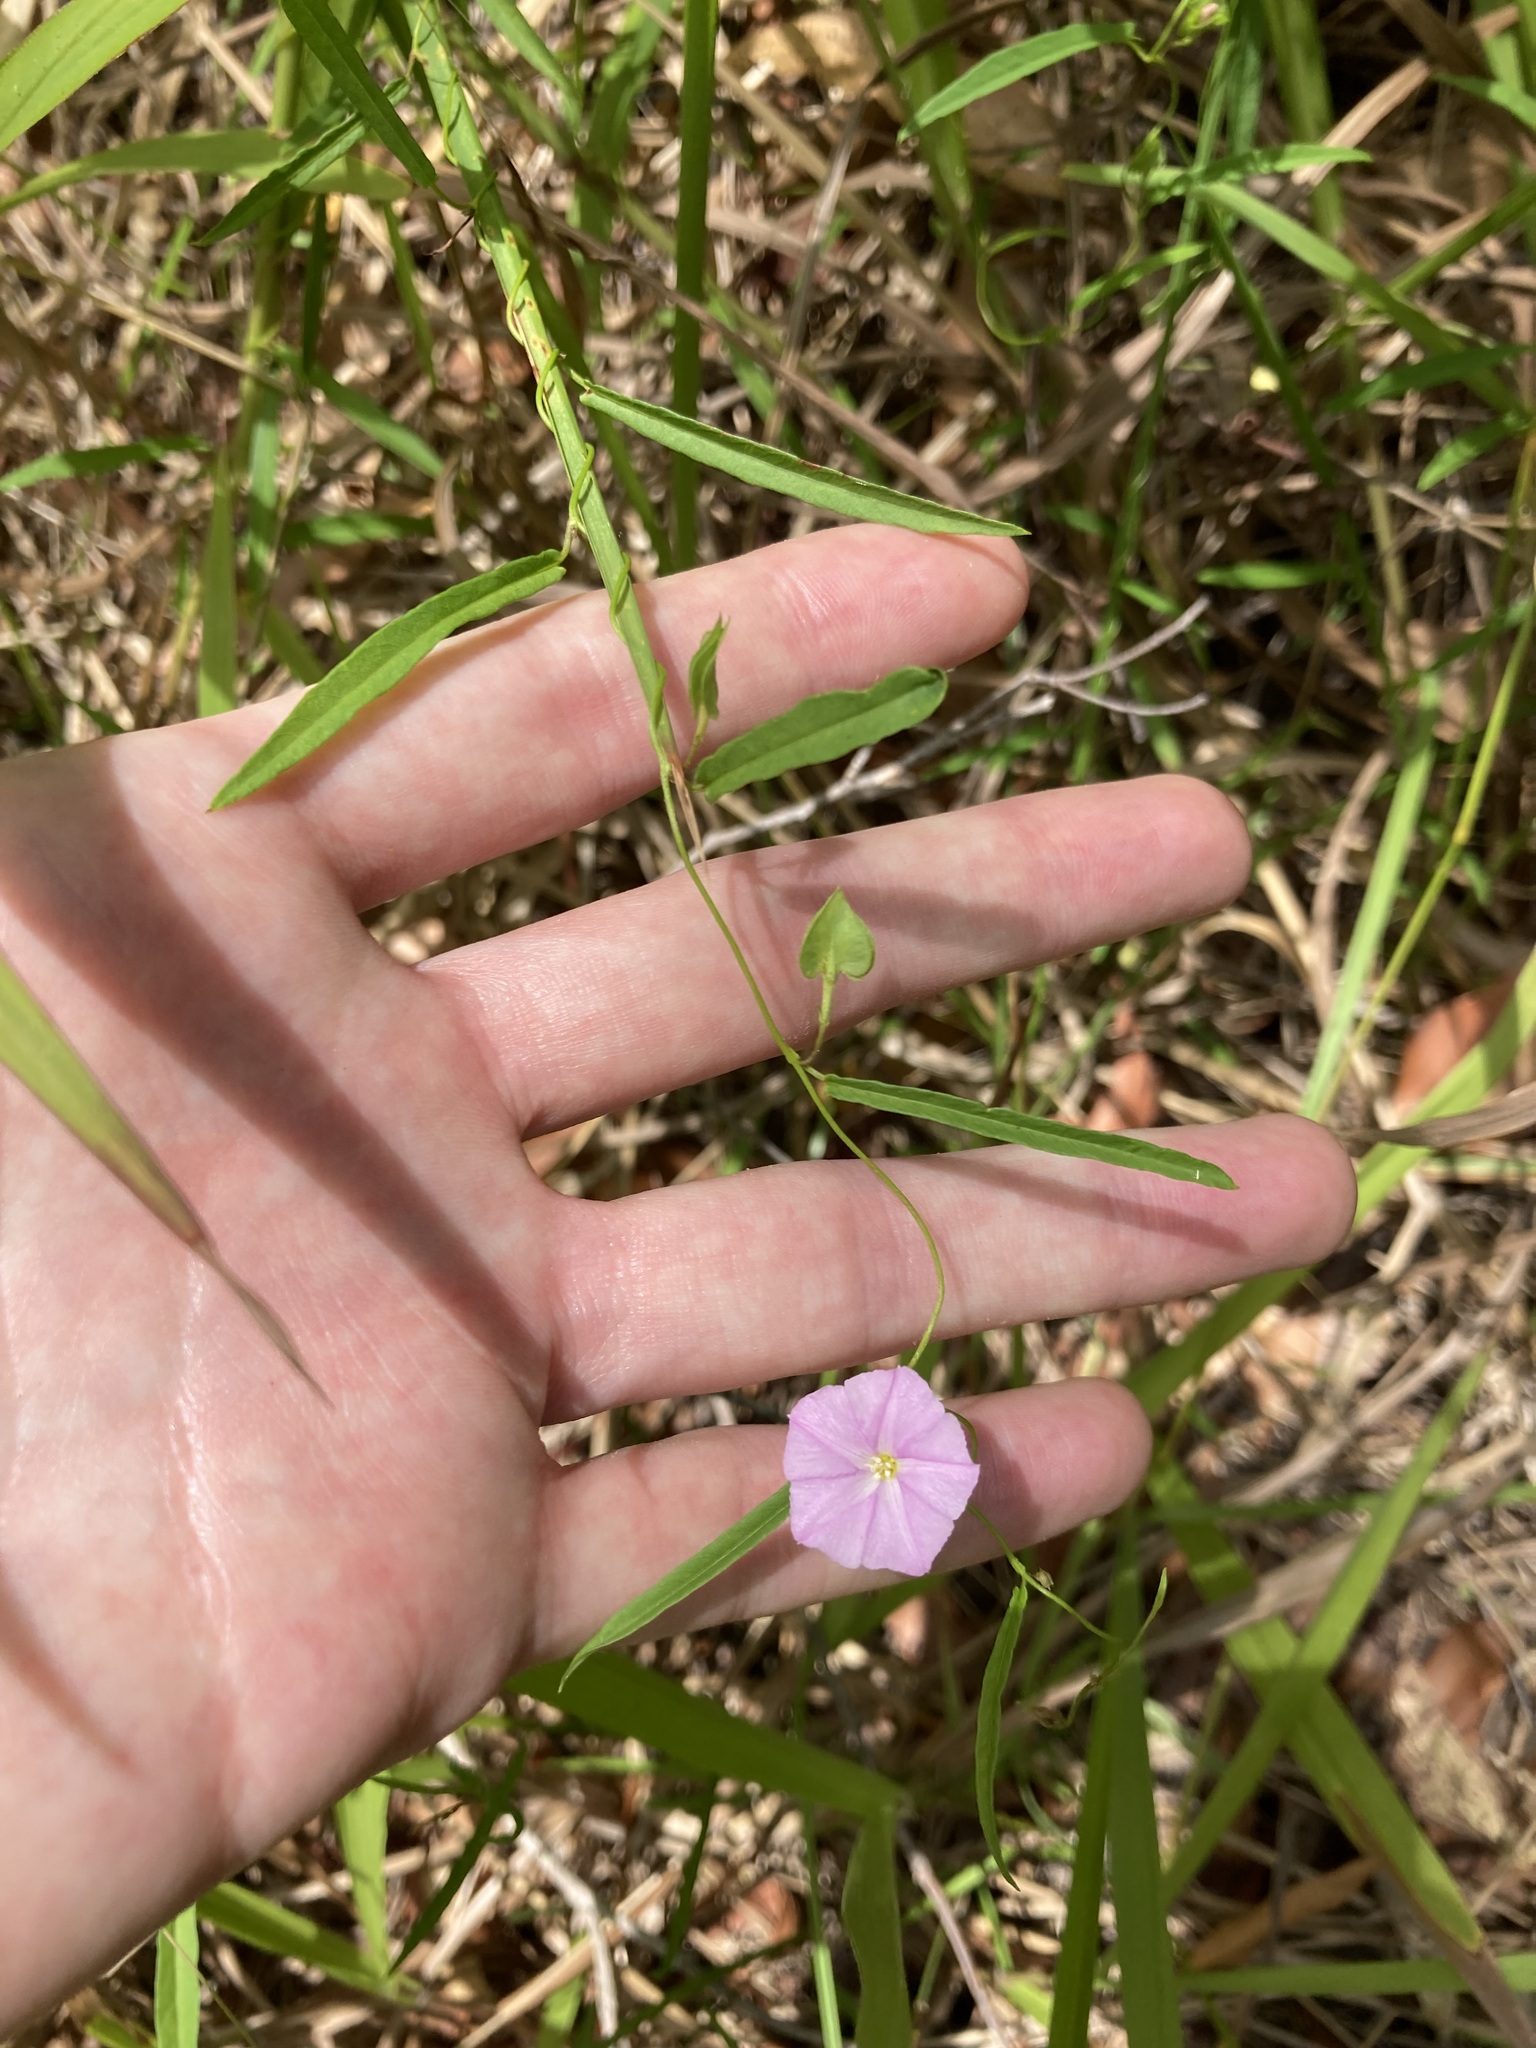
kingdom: Plantae
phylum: Tracheophyta
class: Magnoliopsida
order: Solanales
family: Convolvulaceae
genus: Polymeria
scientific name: Polymeria calycina
